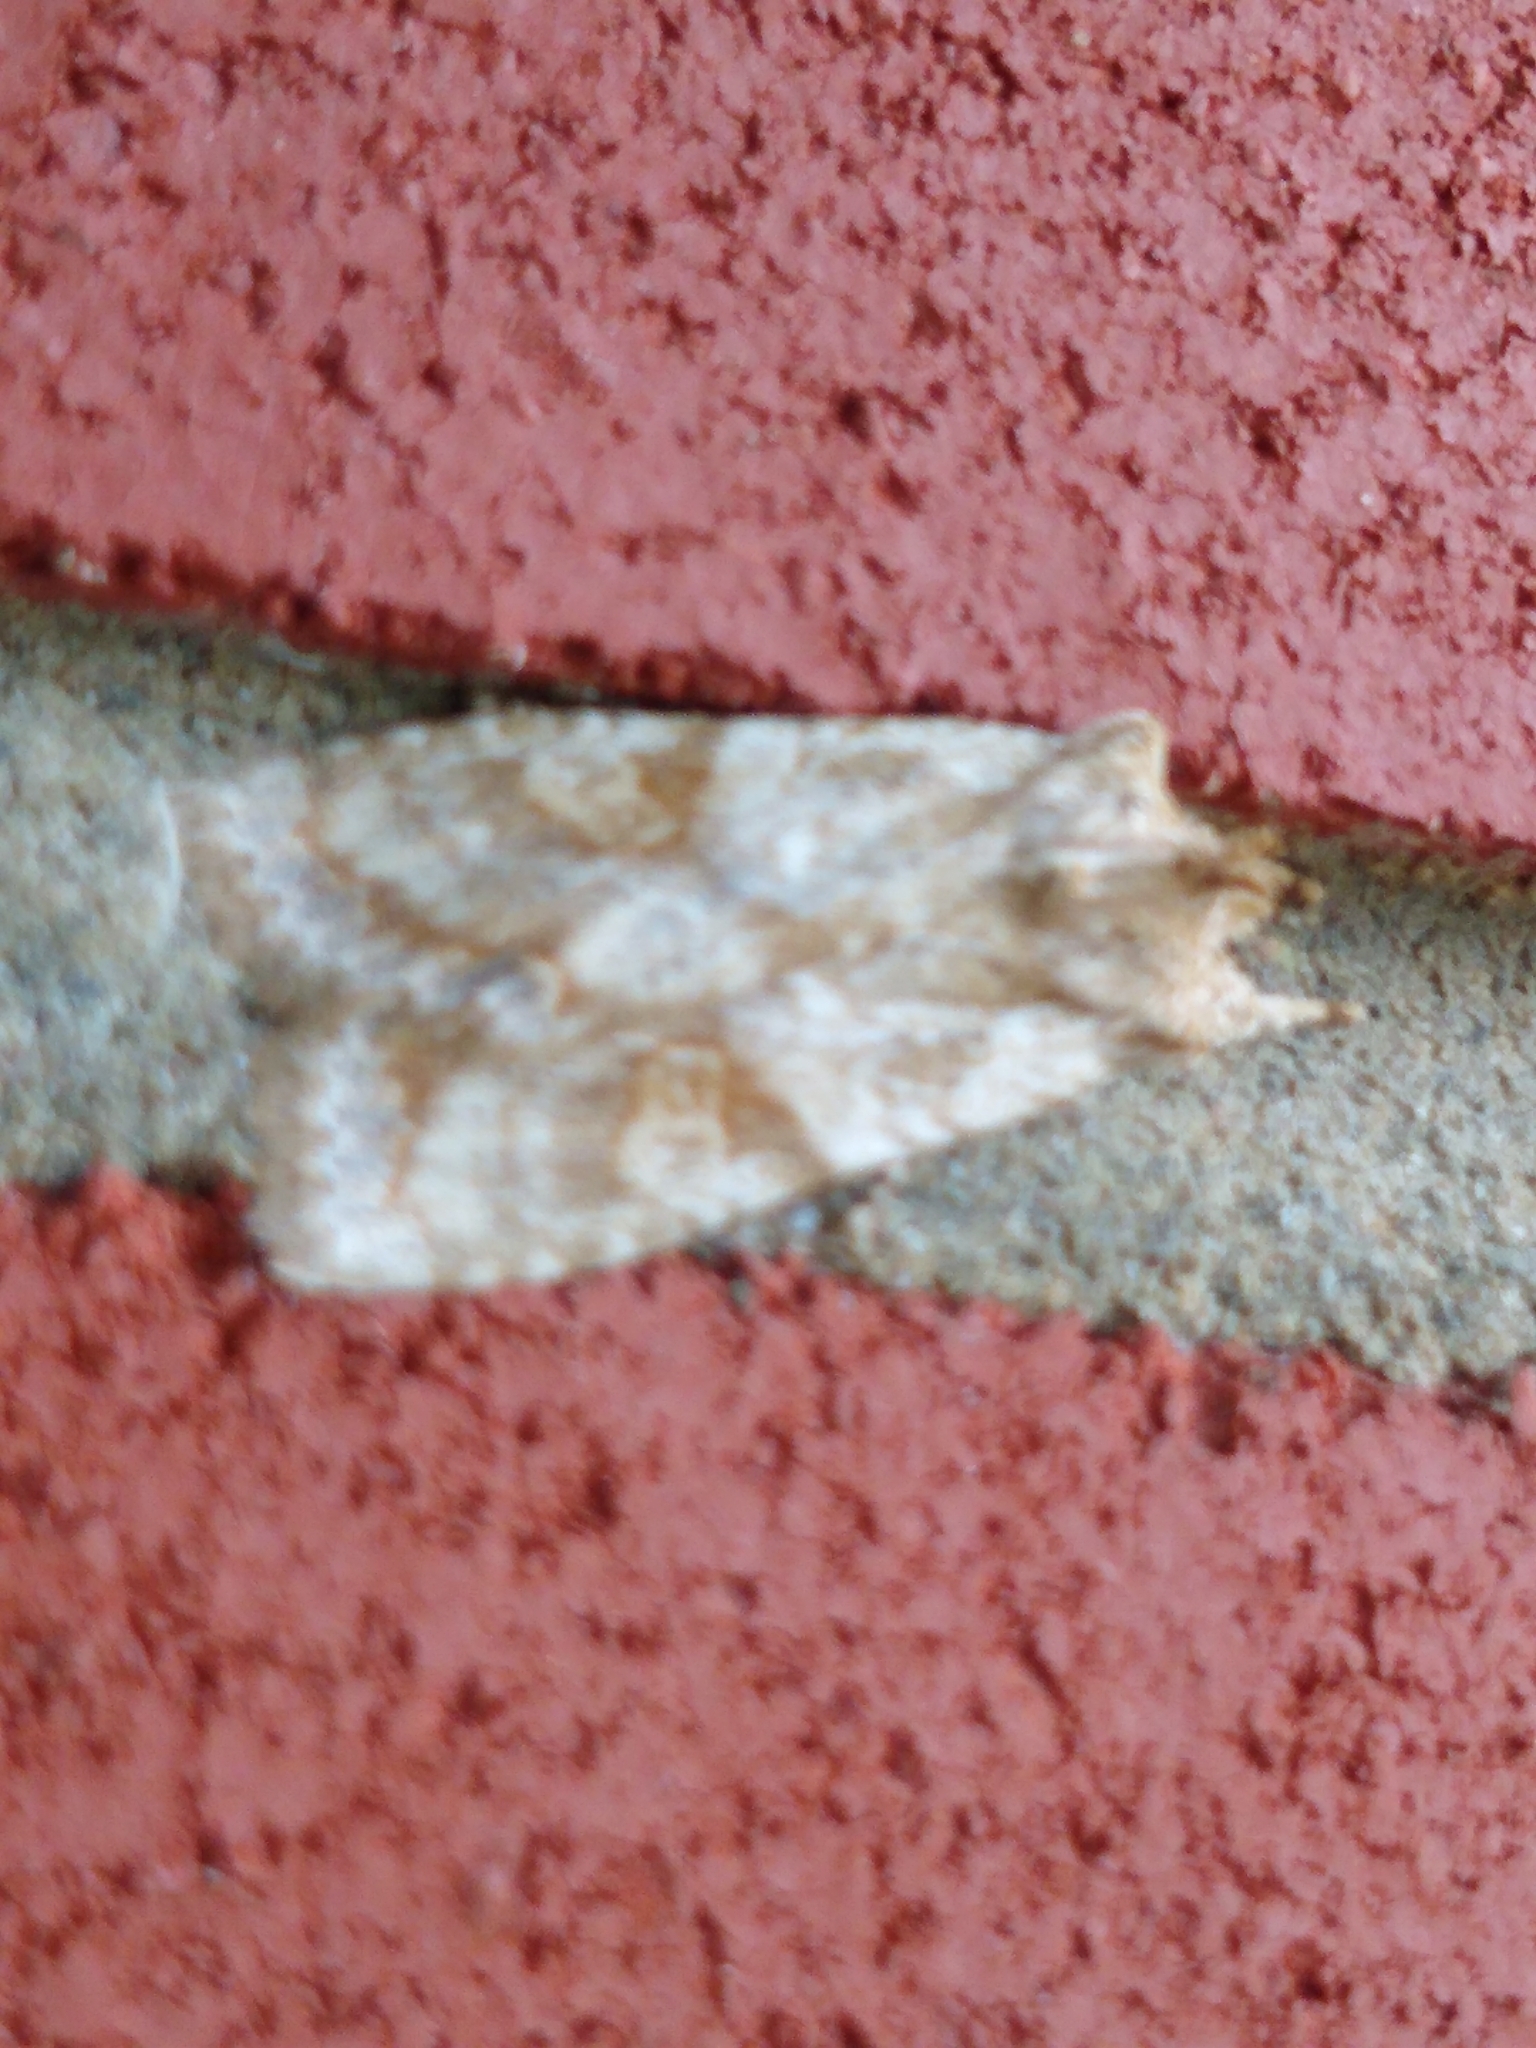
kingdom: Animalia
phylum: Arthropoda
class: Insecta
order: Lepidoptera
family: Noctuidae
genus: Lithophane
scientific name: Lithophane bethunei
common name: Bethune's pinion moth
